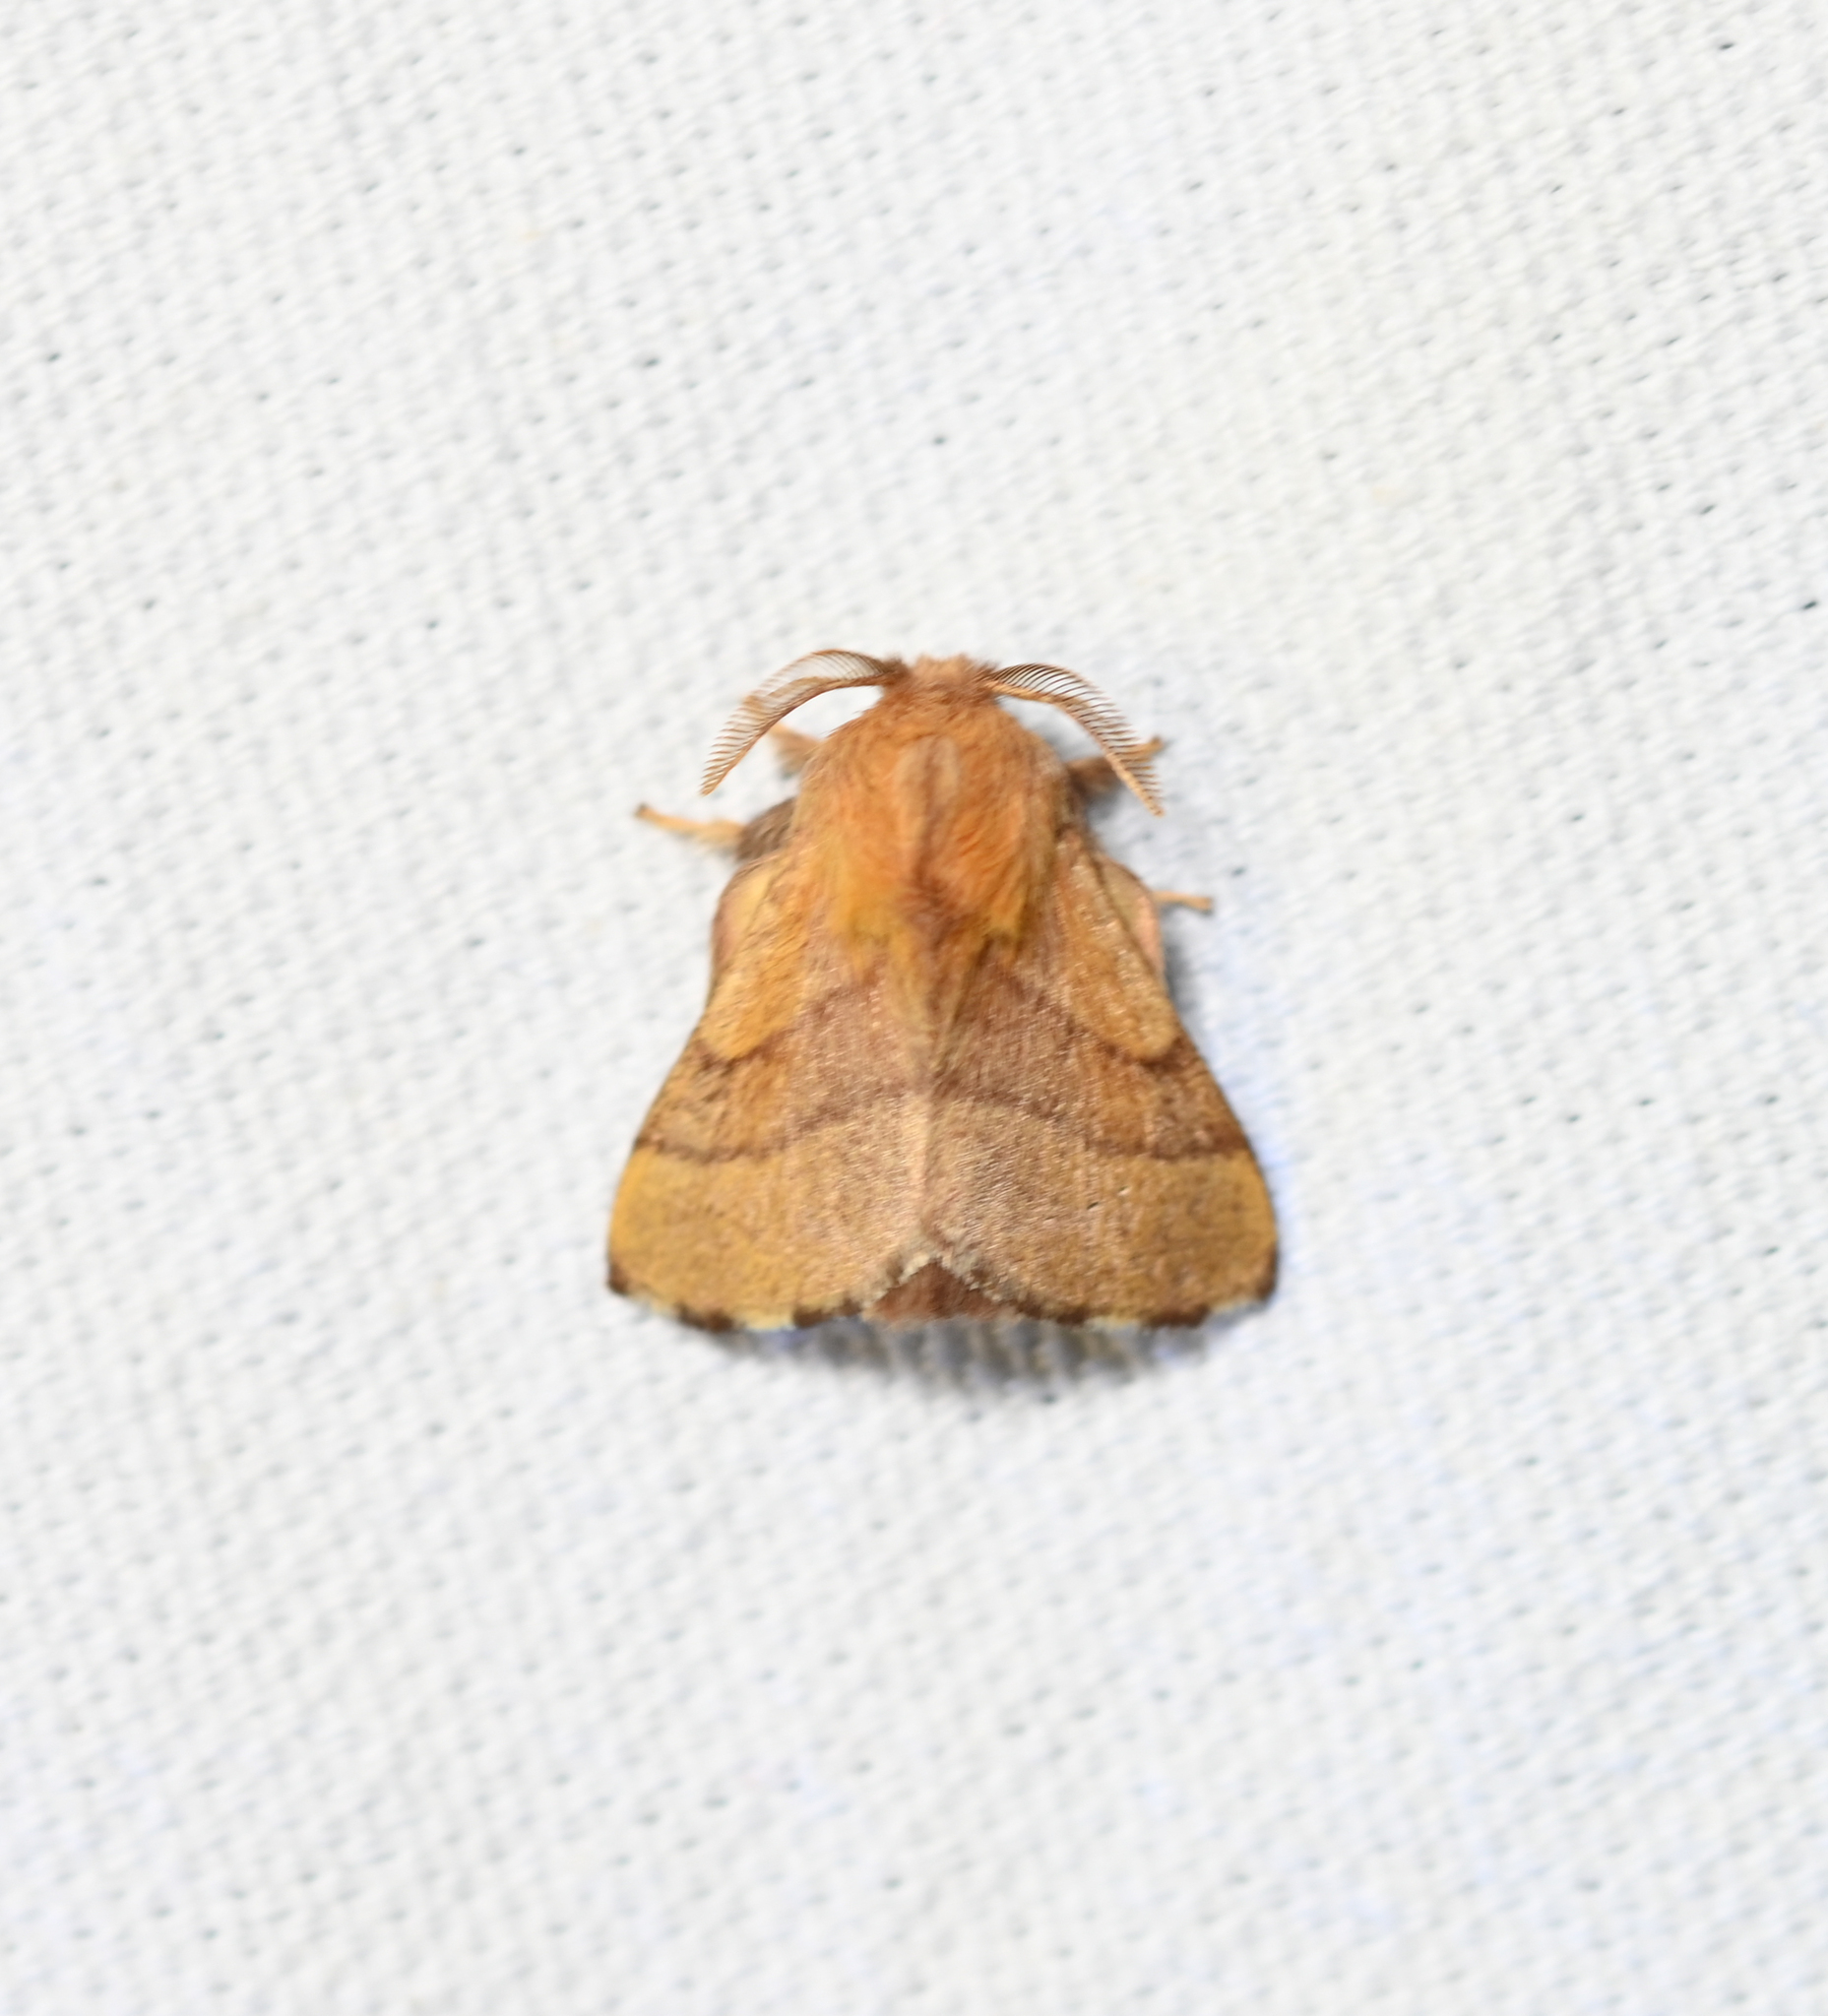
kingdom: Animalia
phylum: Arthropoda
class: Insecta
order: Lepidoptera
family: Lasiocampidae
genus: Malacosoma
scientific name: Malacosoma disstria
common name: Forest tent caterpillar
